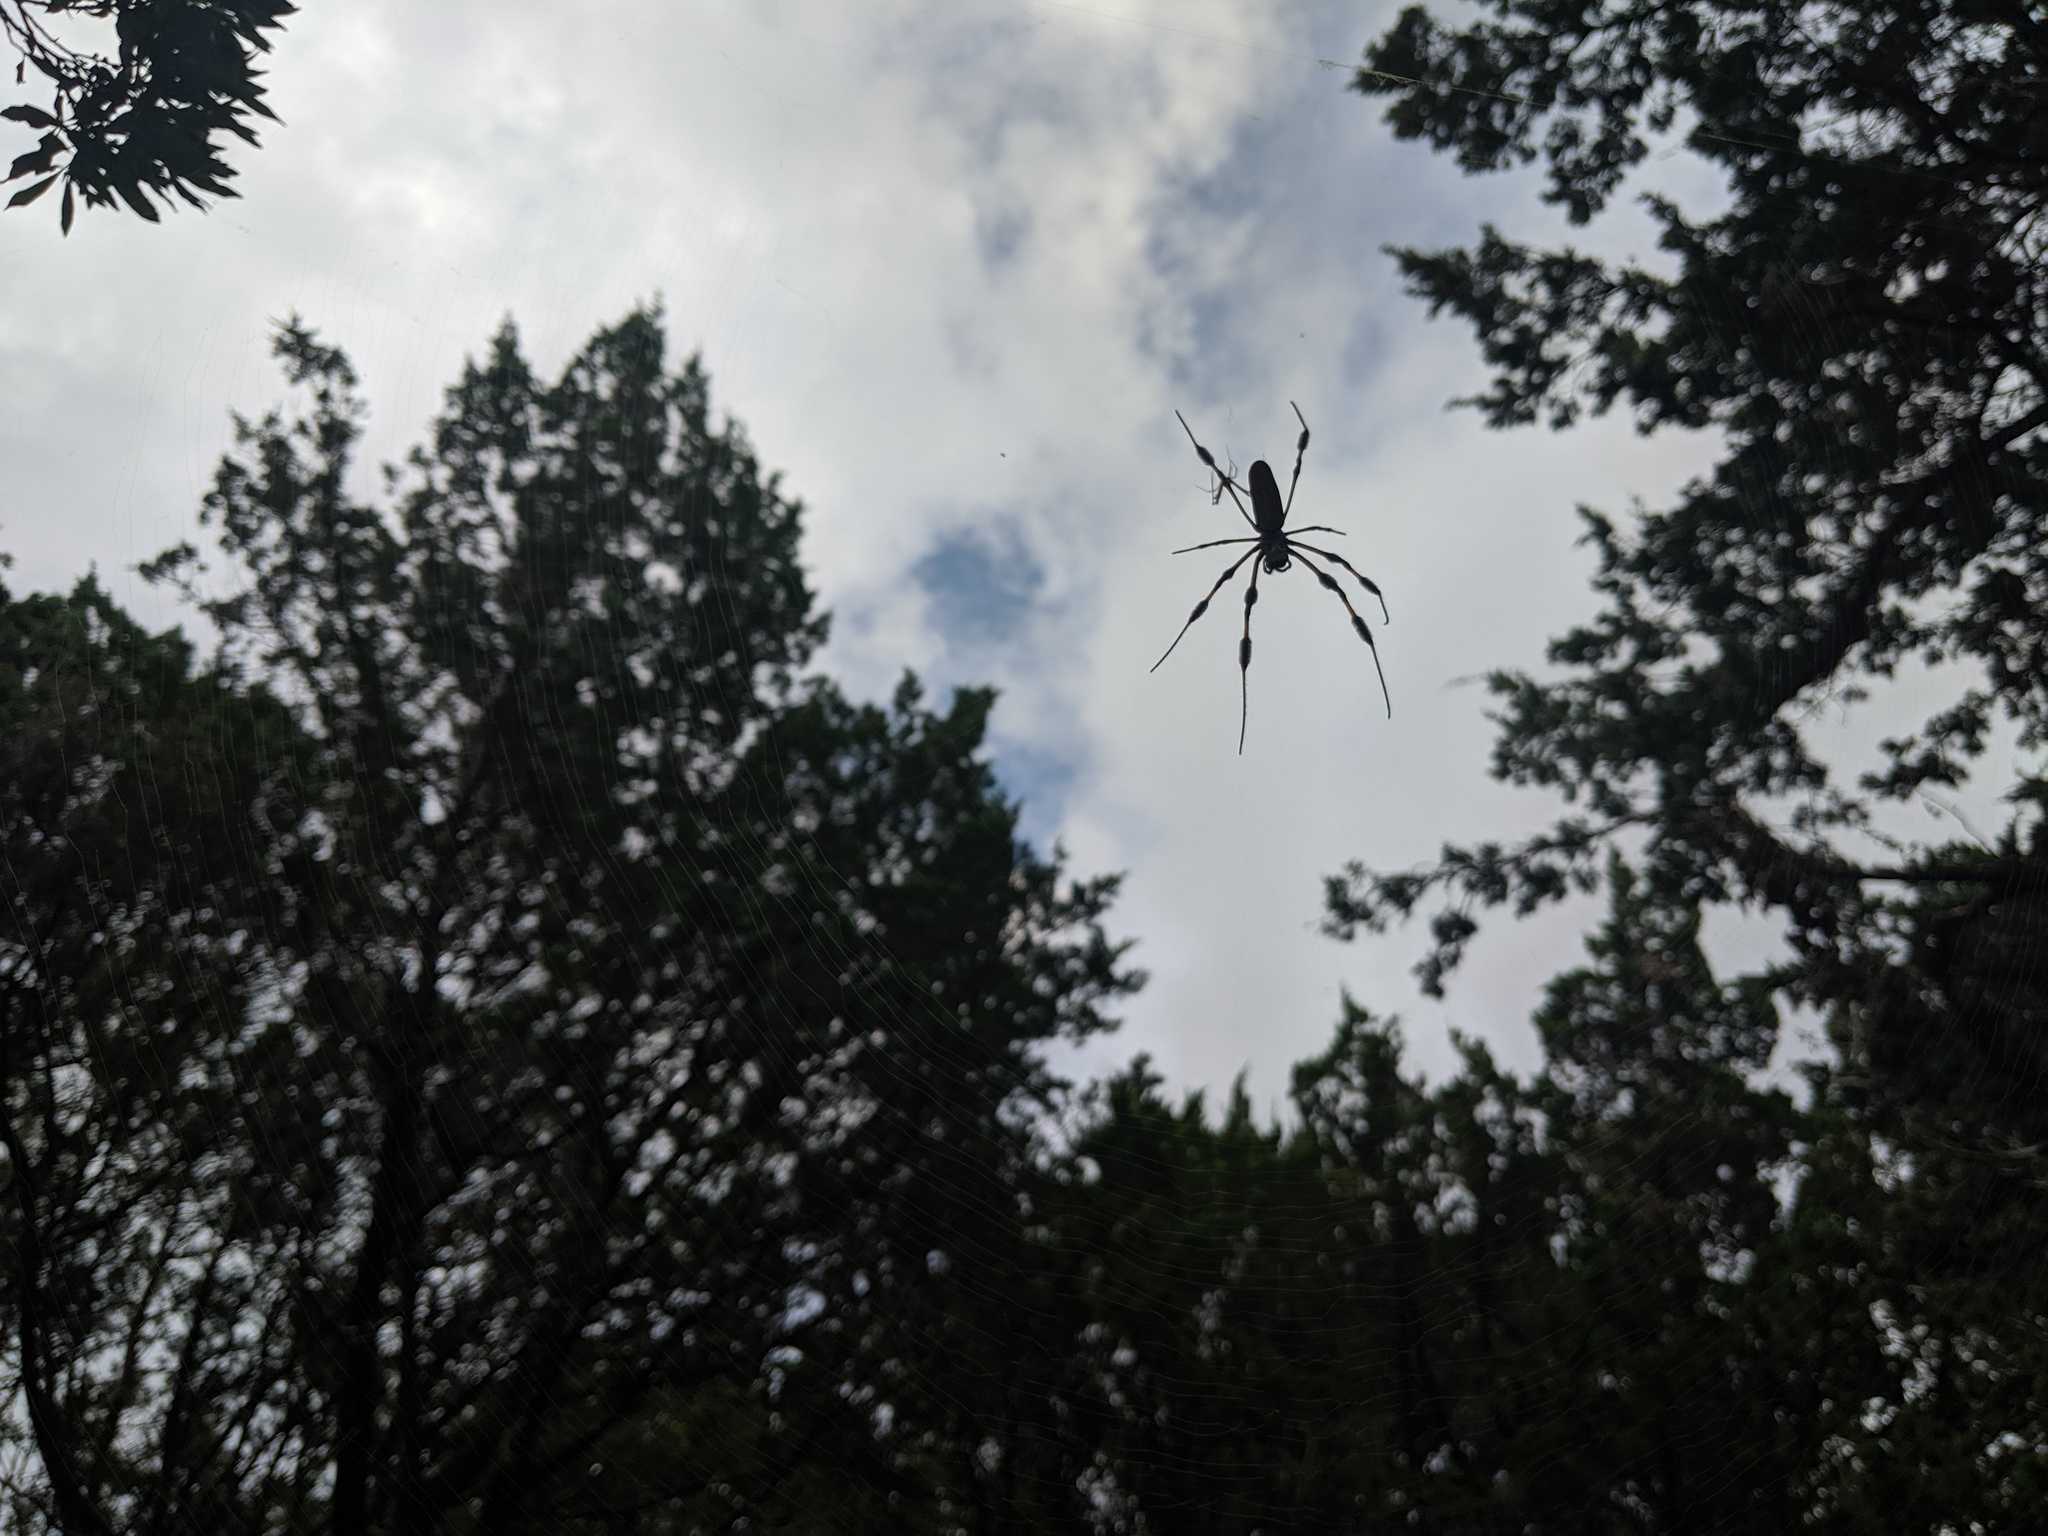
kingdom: Animalia
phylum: Arthropoda
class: Arachnida
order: Araneae
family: Araneidae
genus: Trichonephila
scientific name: Trichonephila clavipes
